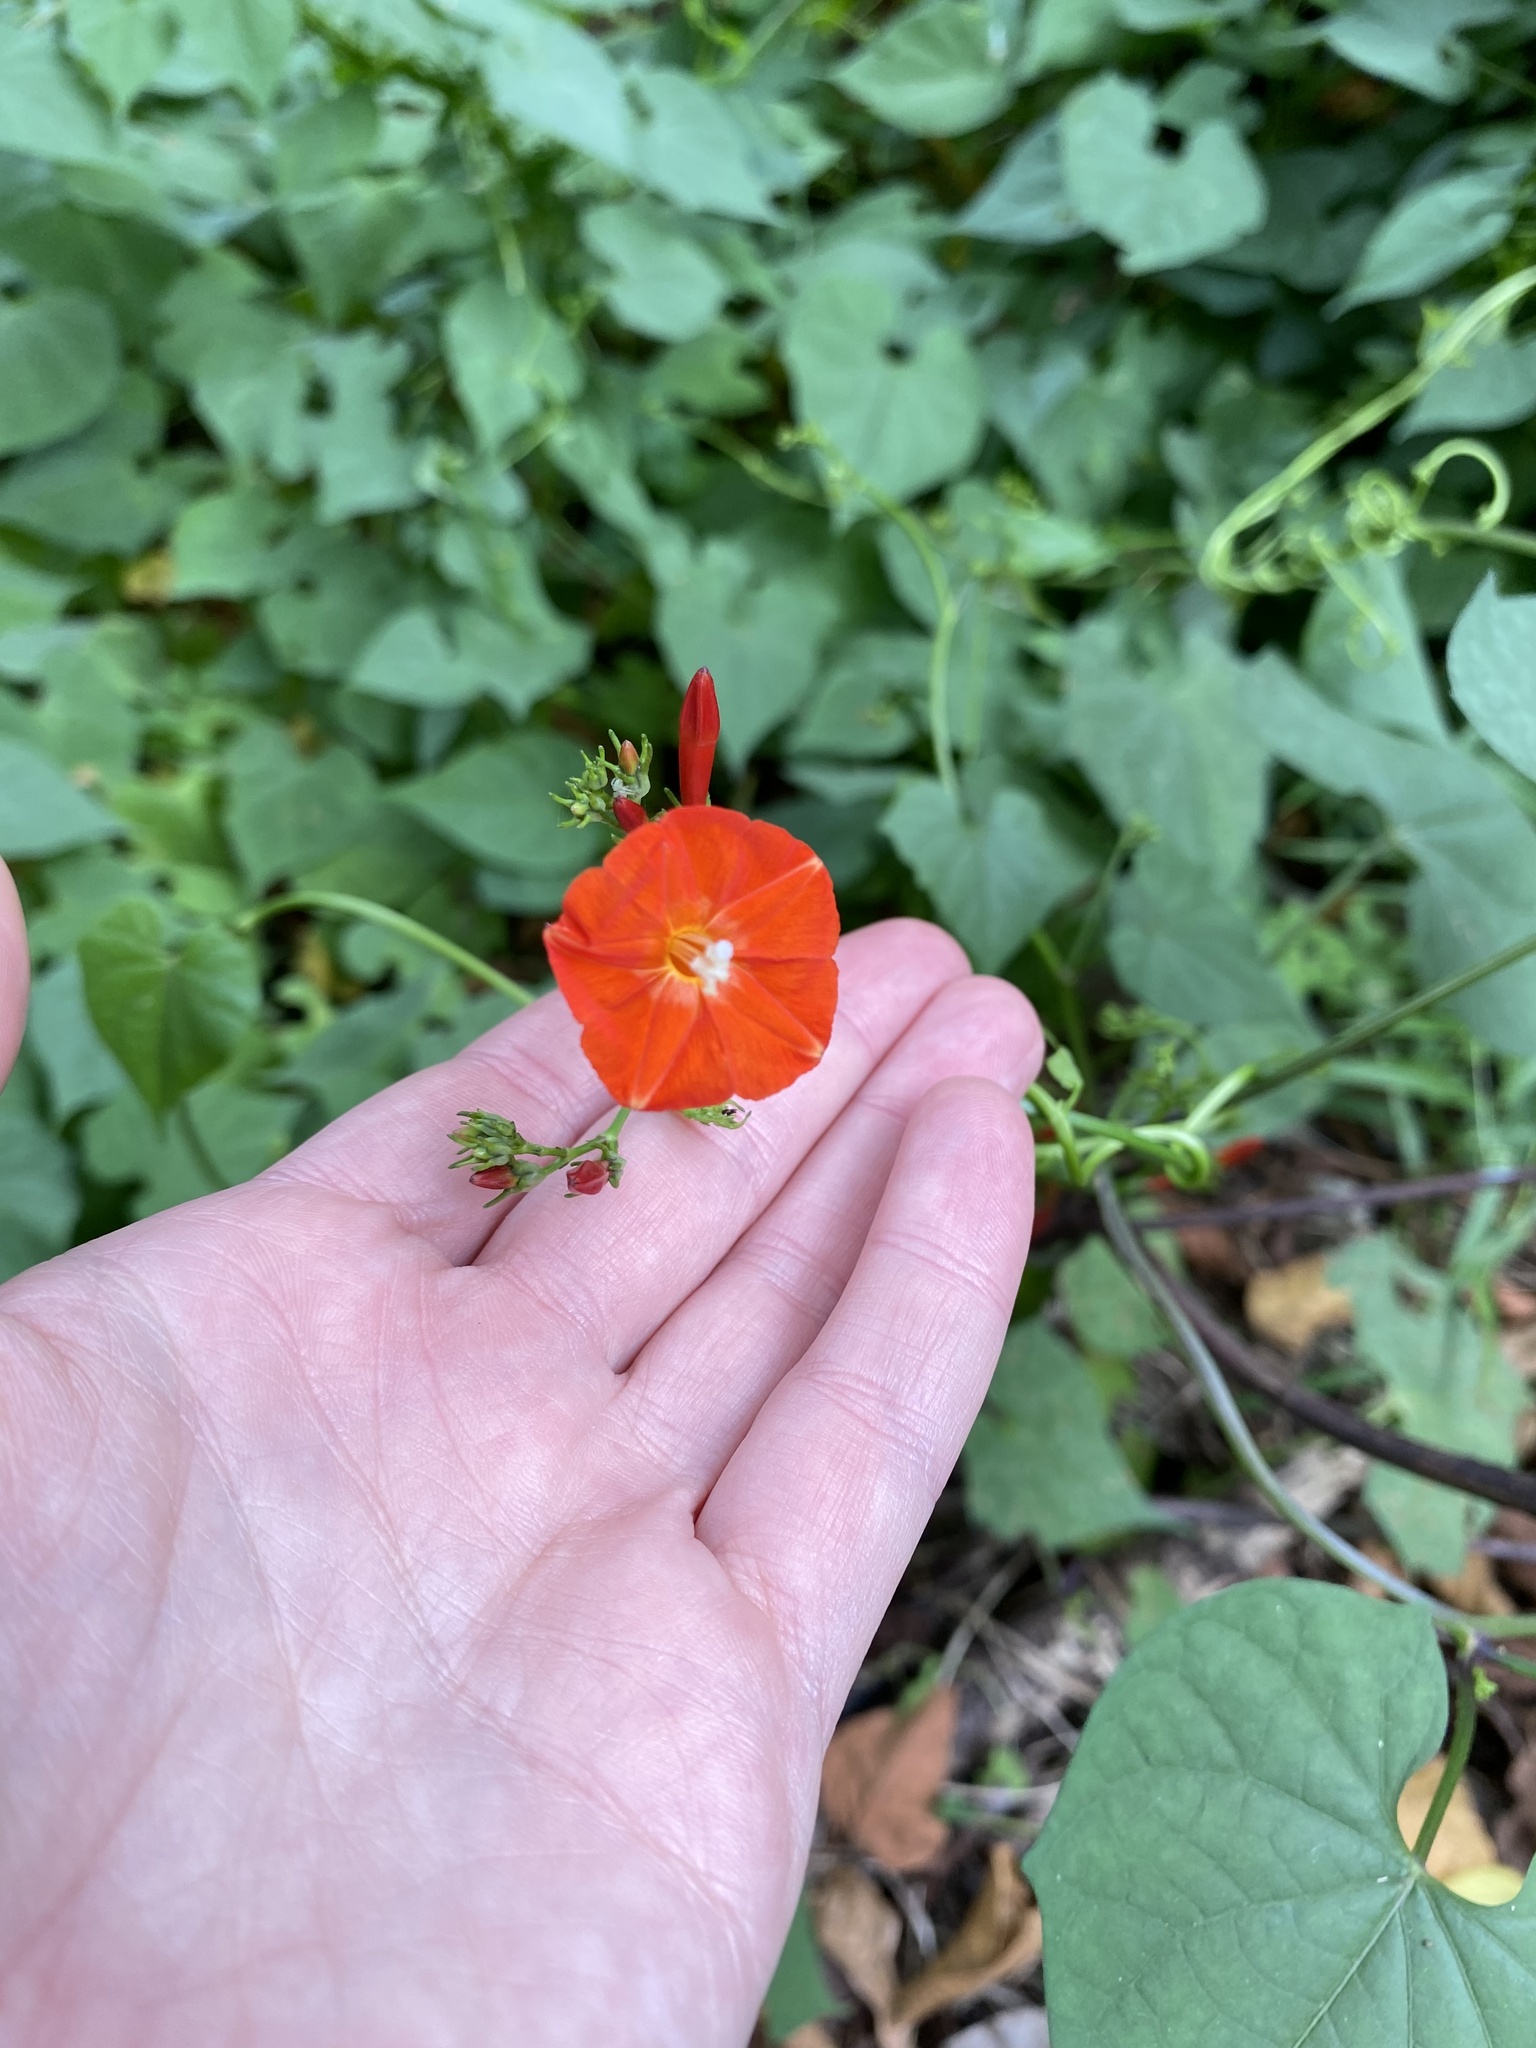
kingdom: Plantae
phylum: Tracheophyta
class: Magnoliopsida
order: Solanales
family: Convolvulaceae
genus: Ipomoea
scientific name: Ipomoea hederifolia
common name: Ivy-leaf morning-glory
